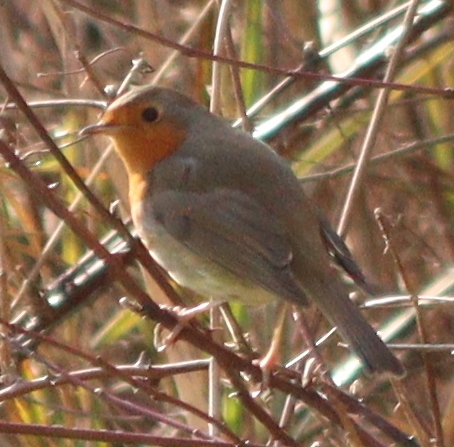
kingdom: Animalia
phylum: Chordata
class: Aves
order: Passeriformes
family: Muscicapidae
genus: Erithacus
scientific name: Erithacus rubecula
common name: European robin
